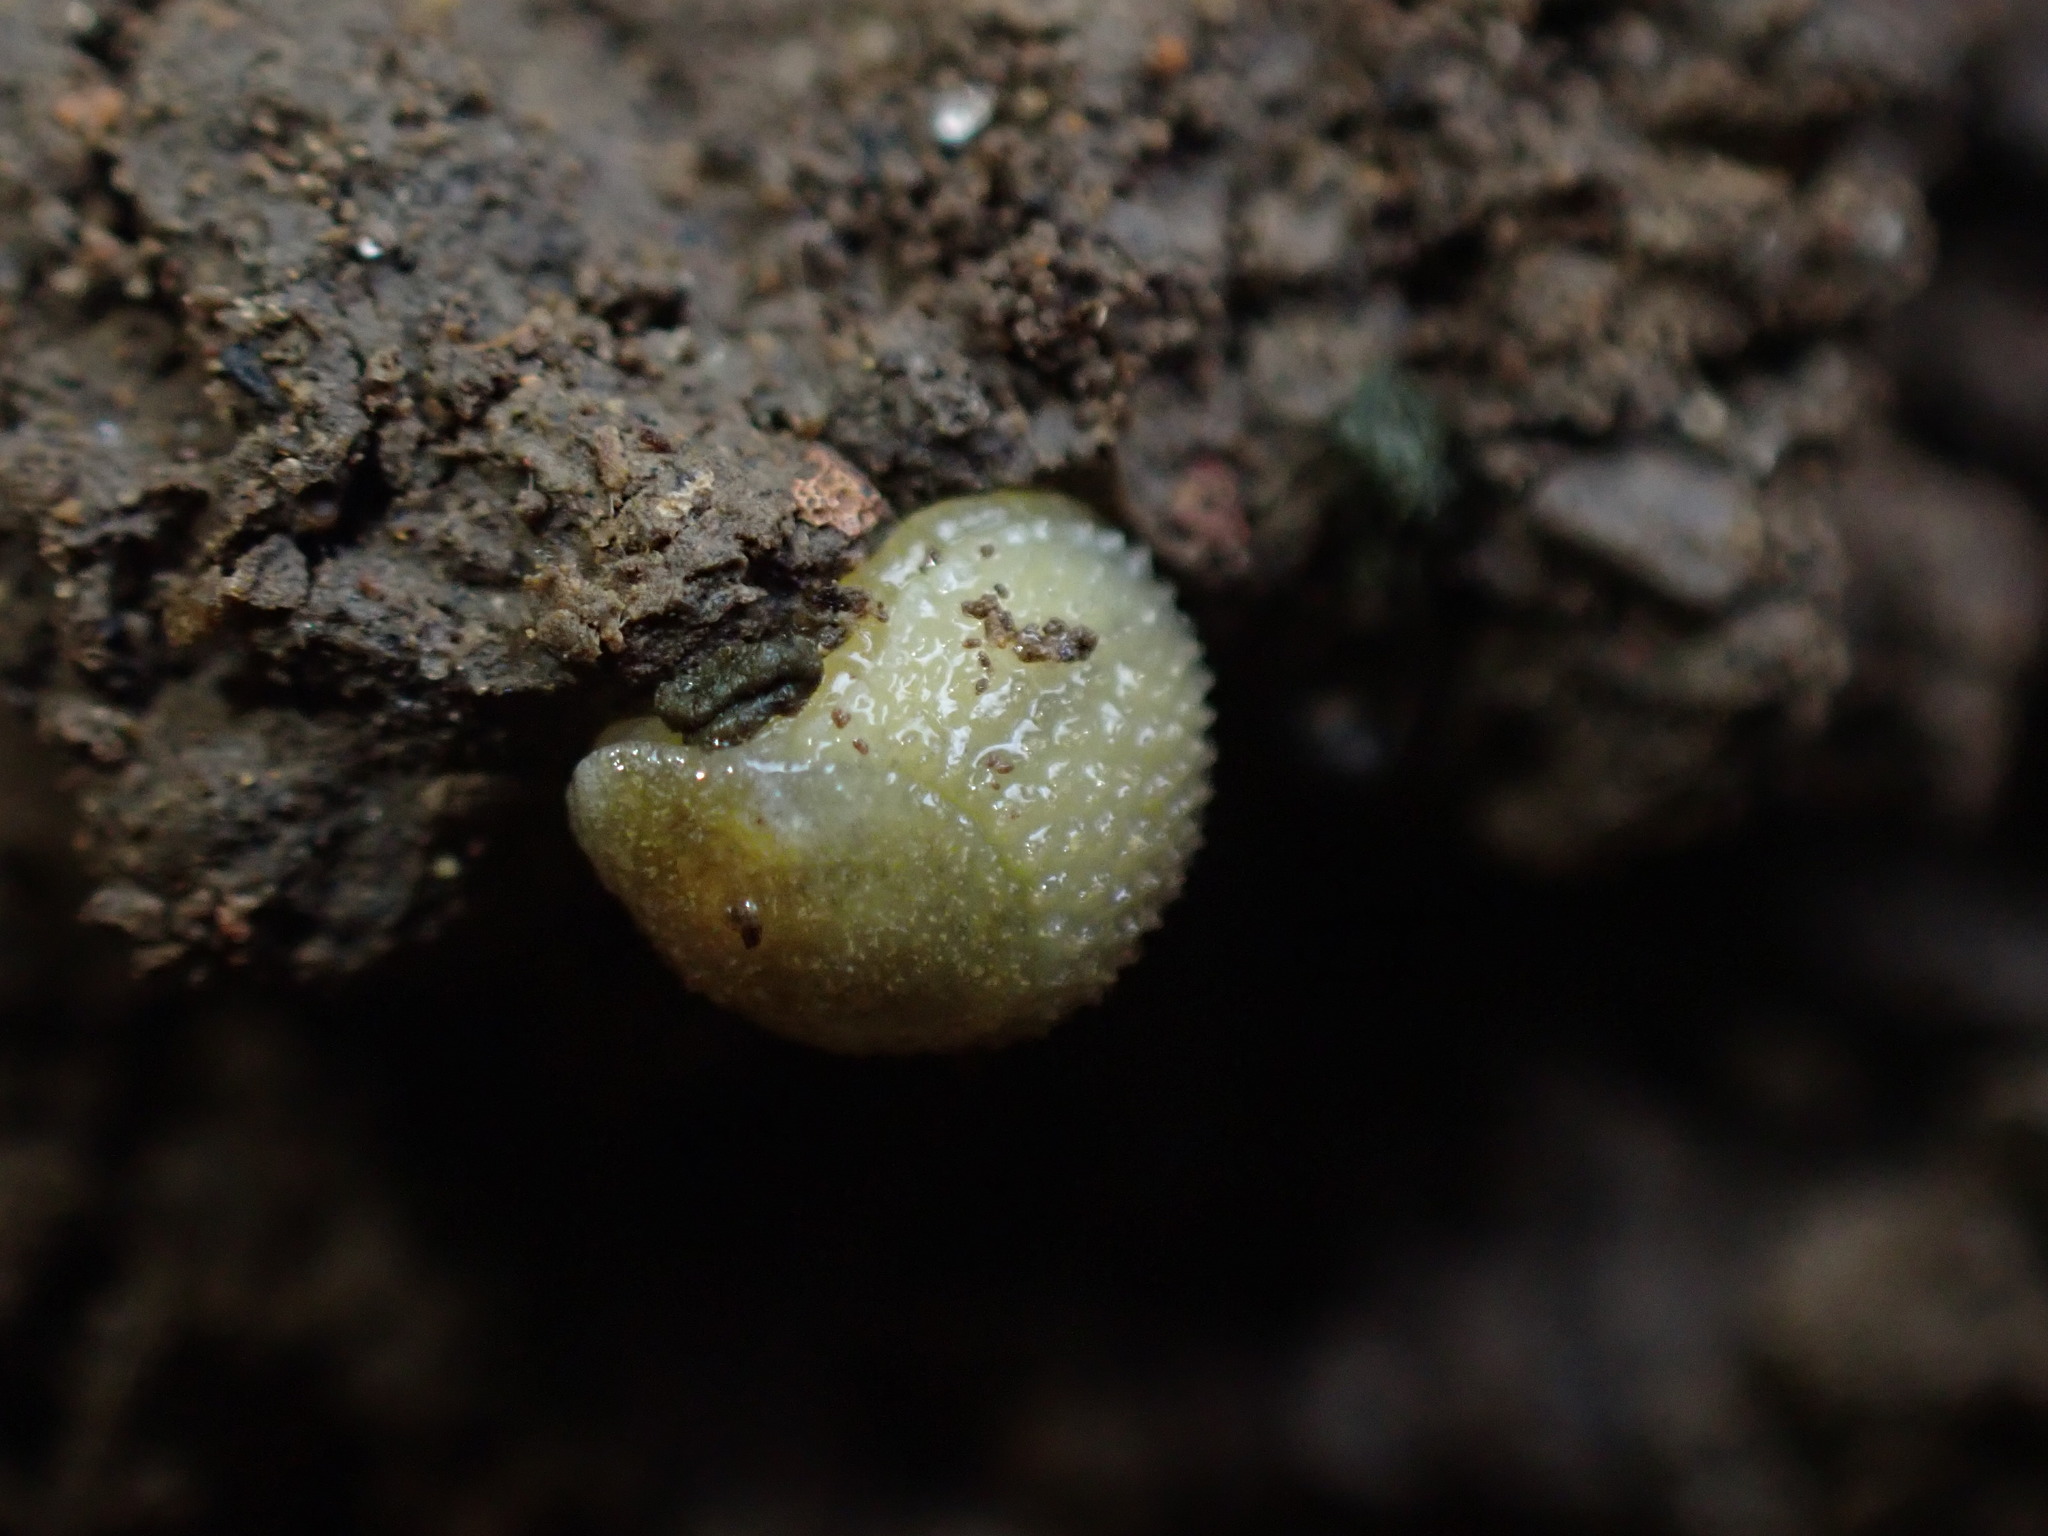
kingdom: Animalia
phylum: Mollusca
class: Gastropoda
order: Stylommatophora
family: Arionidae
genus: Arion
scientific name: Arion intermedius
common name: Hedgehog slug
